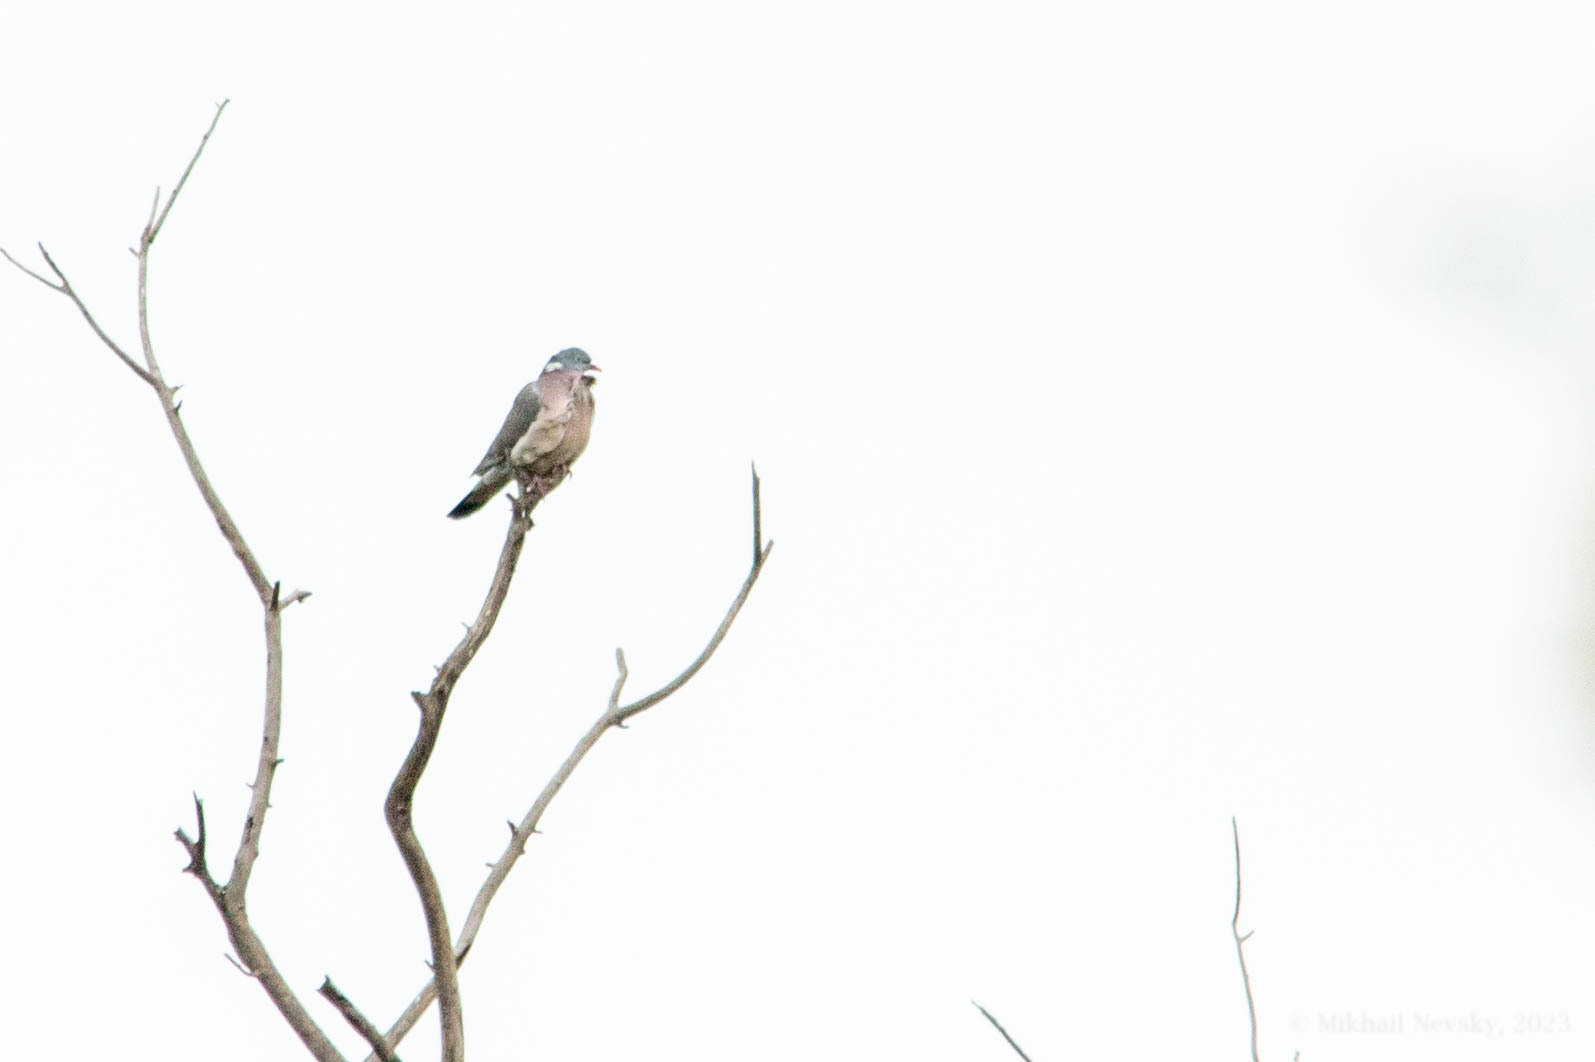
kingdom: Animalia
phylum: Chordata
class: Aves
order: Columbiformes
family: Columbidae
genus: Columba
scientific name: Columba palumbus
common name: Common wood pigeon
